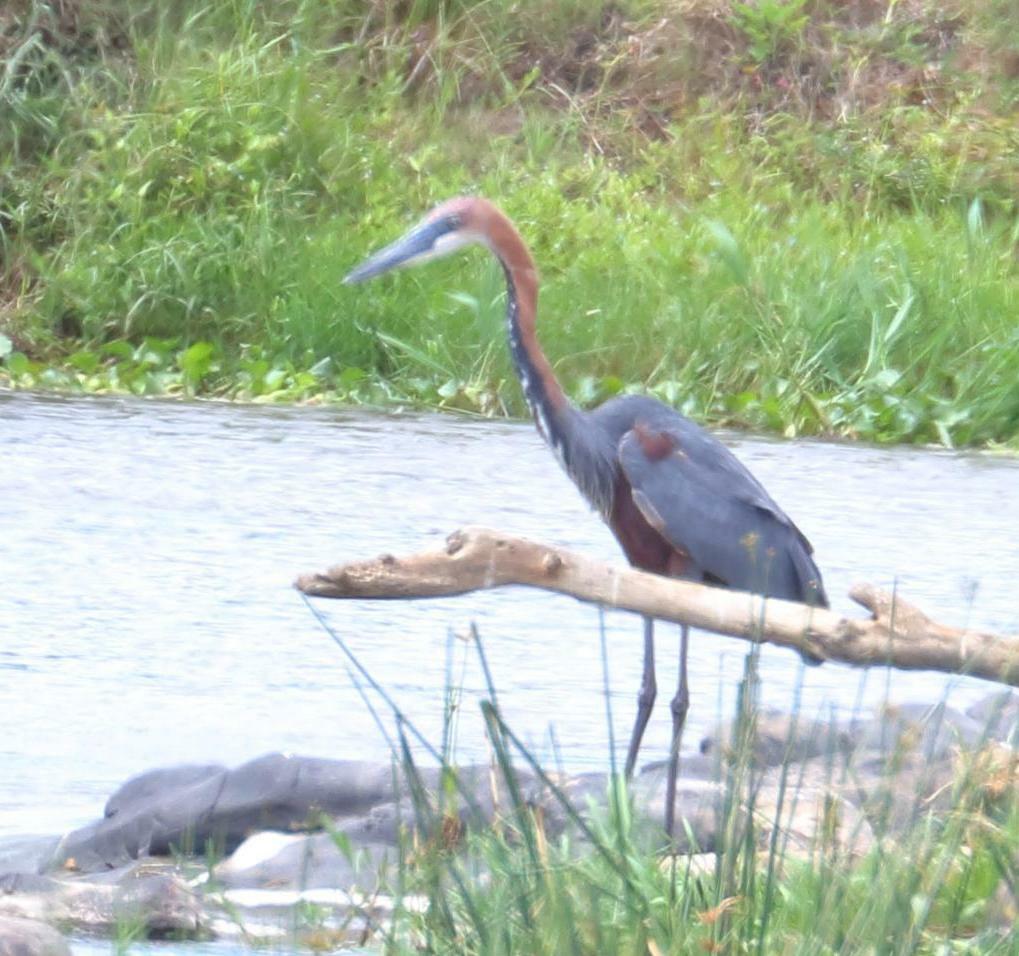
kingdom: Animalia
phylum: Chordata
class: Aves
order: Pelecaniformes
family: Ardeidae
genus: Ardea
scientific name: Ardea goliath
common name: Goliath heron
